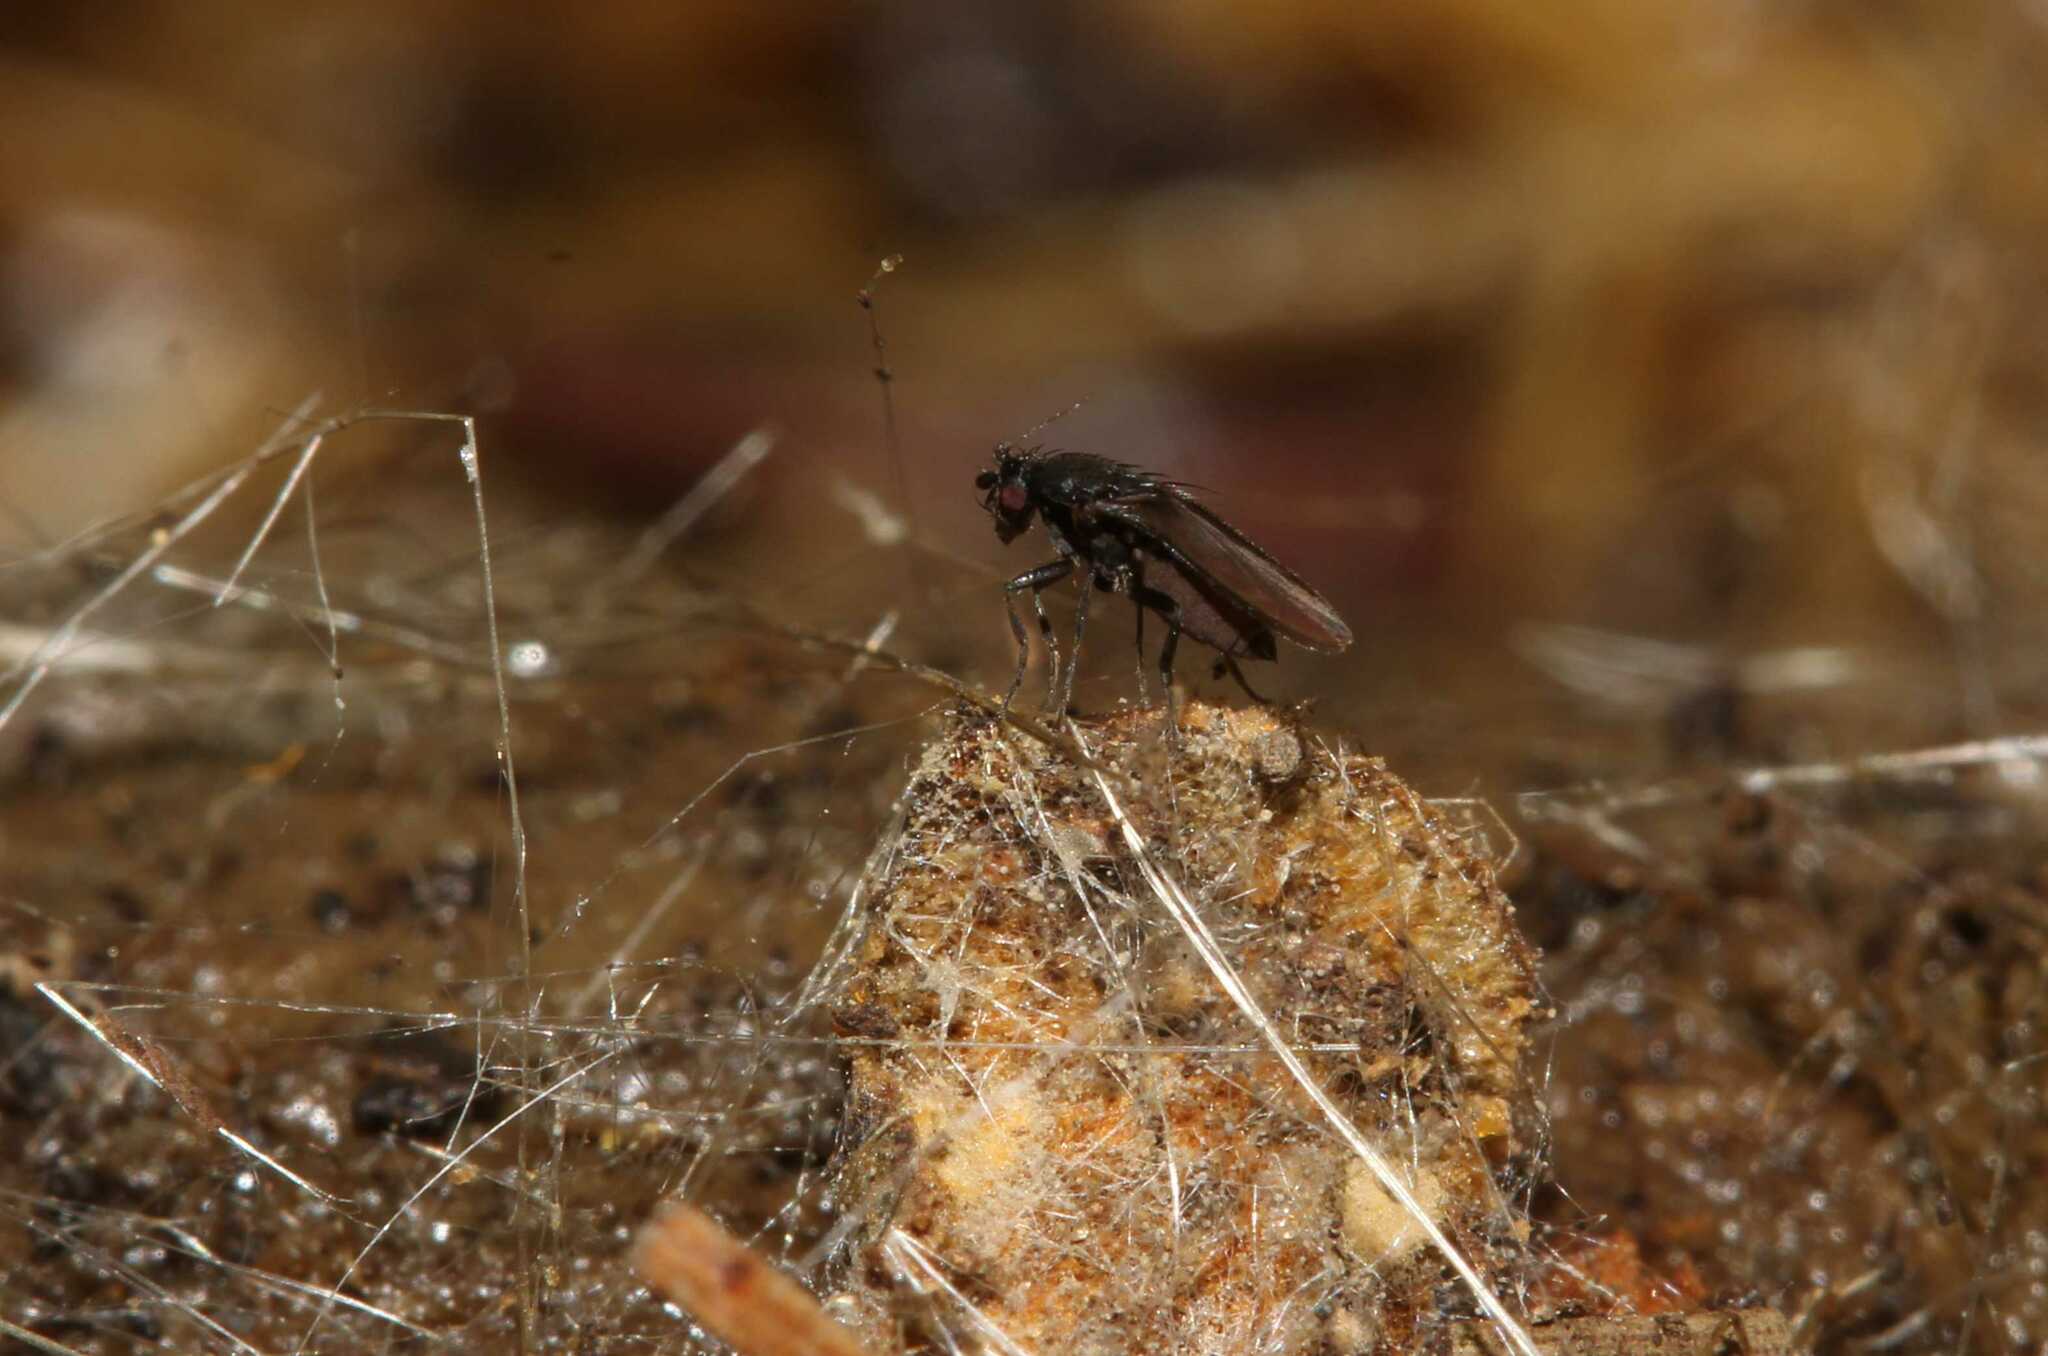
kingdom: Animalia
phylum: Arthropoda
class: Insecta
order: Diptera
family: Sphaeroceridae
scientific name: Sphaeroceridae
